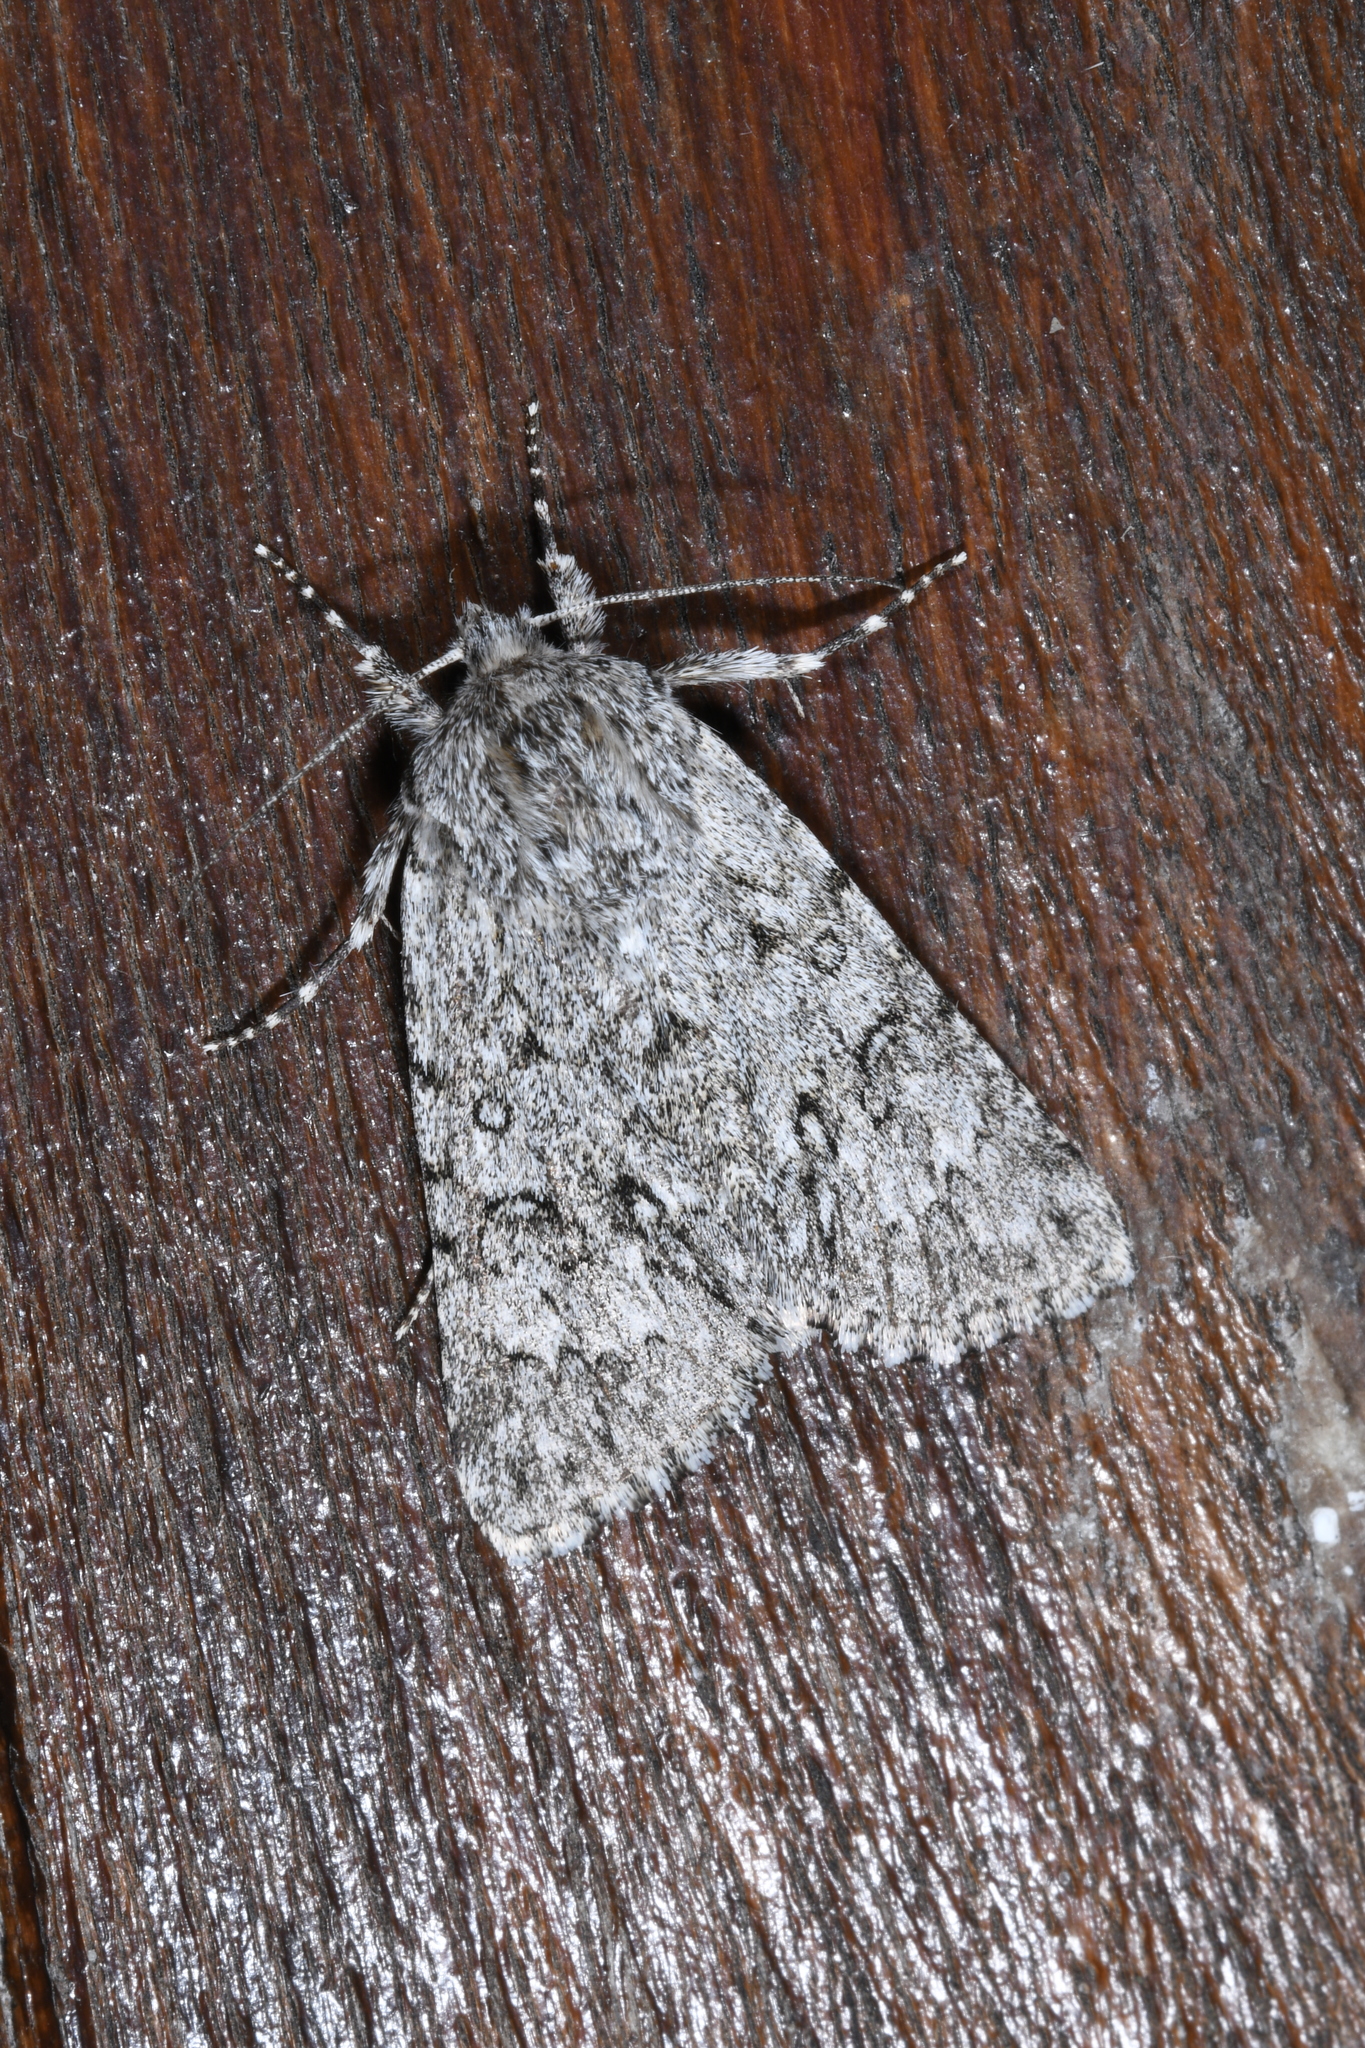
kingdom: Animalia
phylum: Arthropoda
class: Insecta
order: Lepidoptera
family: Noctuidae
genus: Acronicta
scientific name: Acronicta euphorbiae
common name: Sweet gale moth
